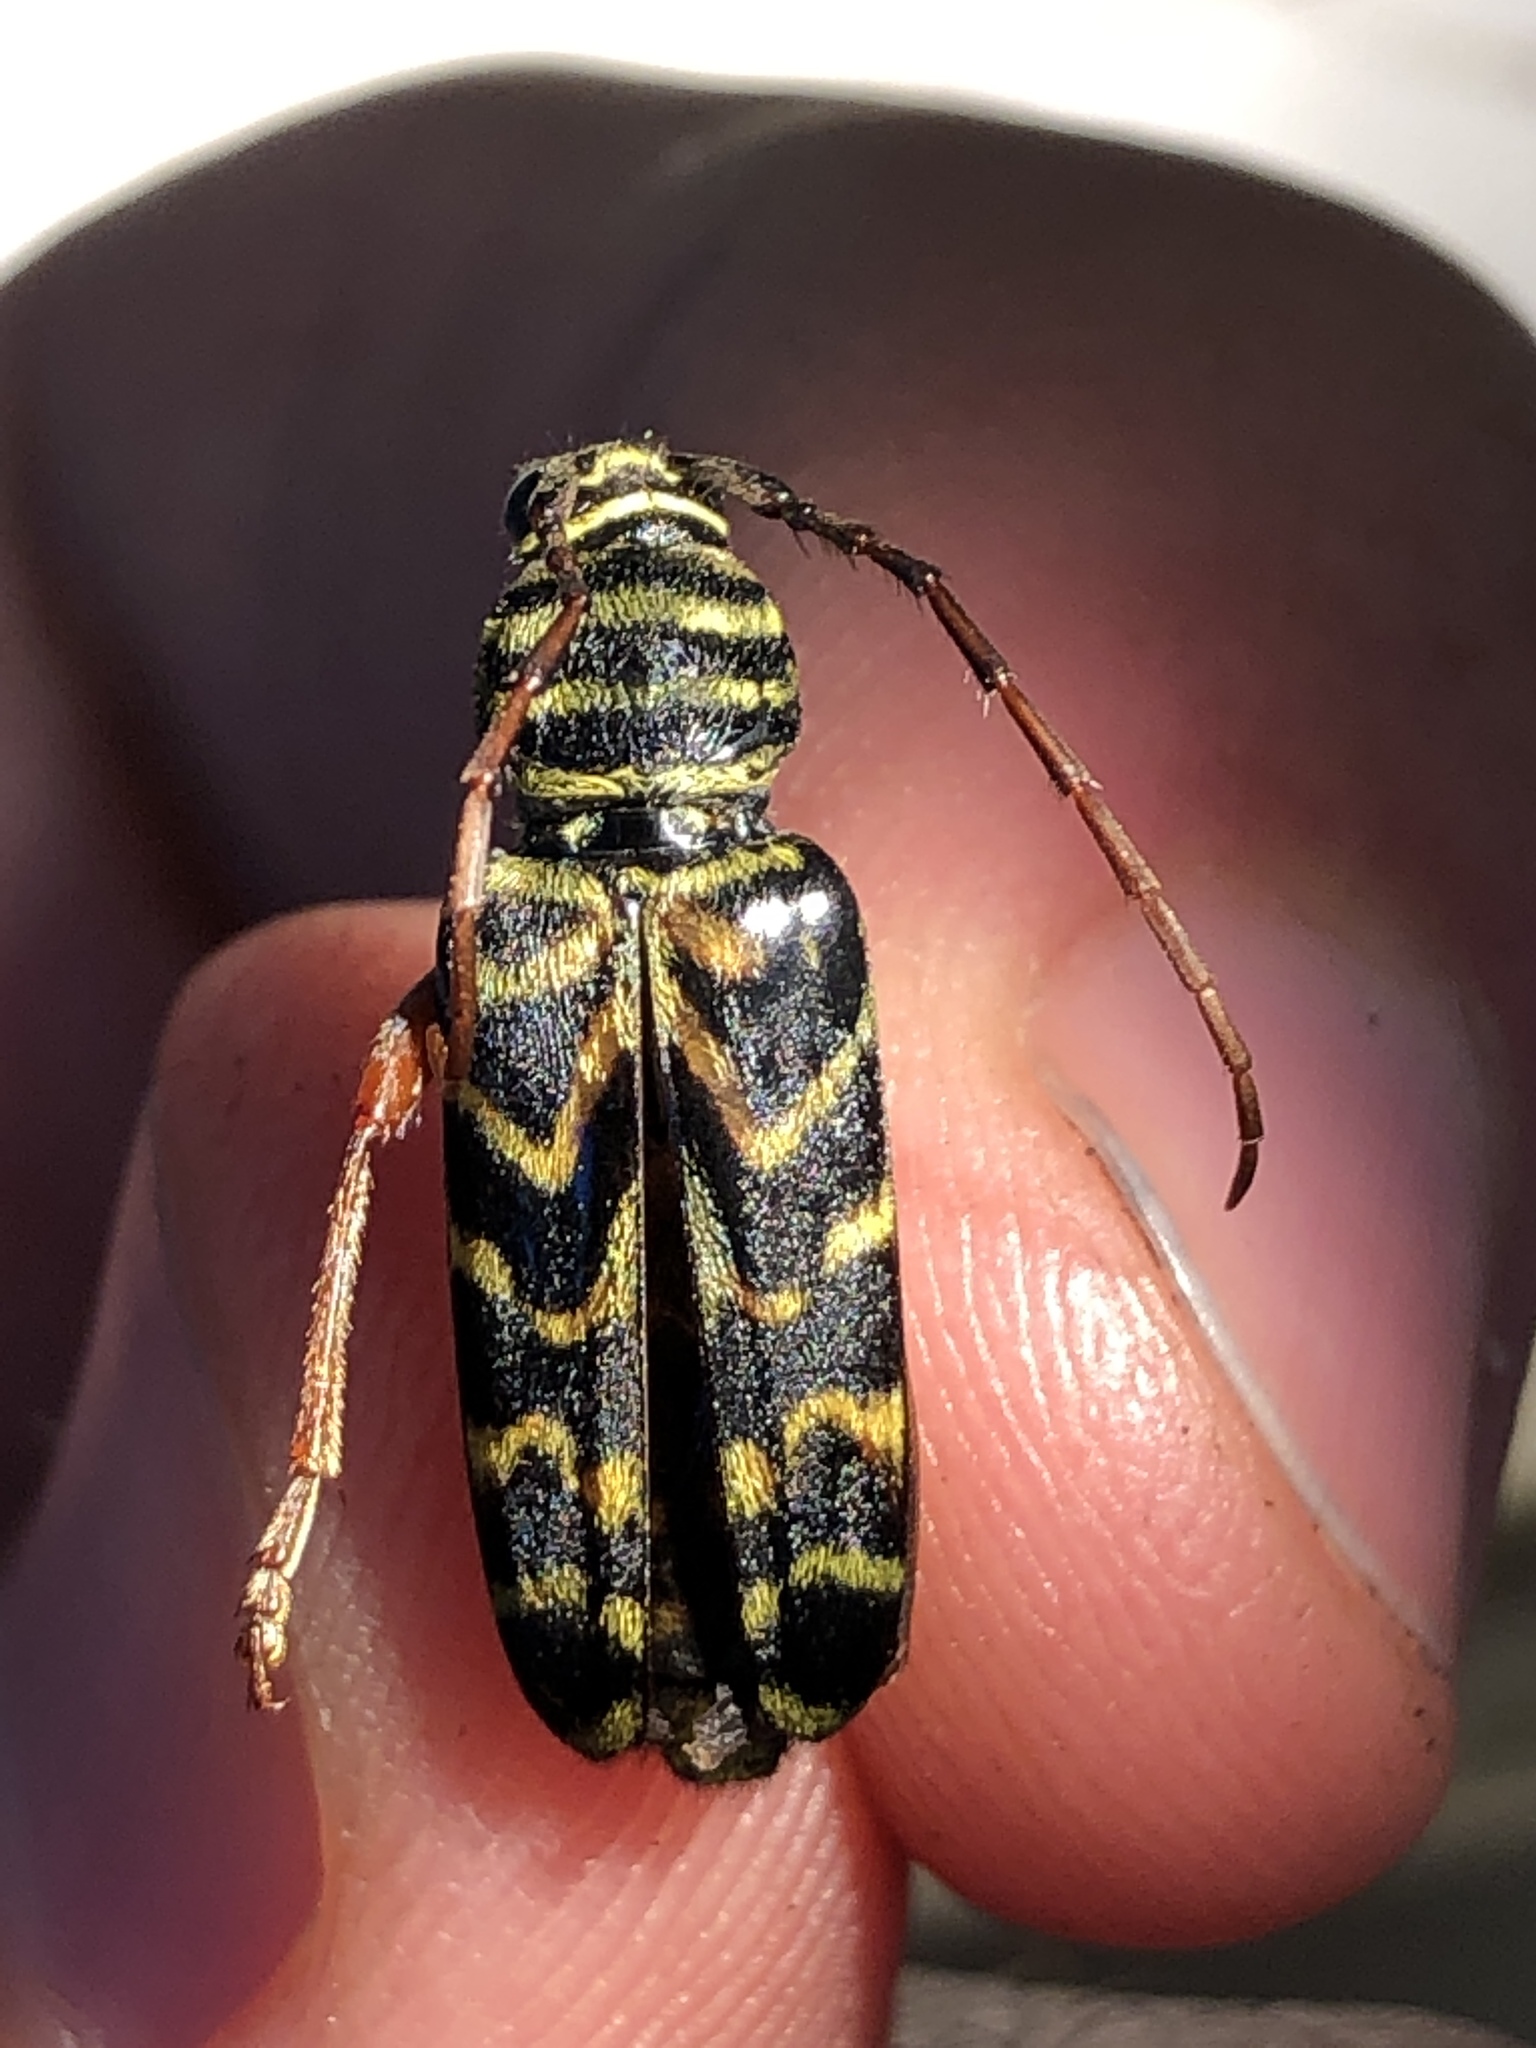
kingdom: Animalia
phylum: Arthropoda
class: Insecta
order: Coleoptera
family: Cerambycidae
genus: Megacyllene
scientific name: Megacyllene robiniae
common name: Locust borer
